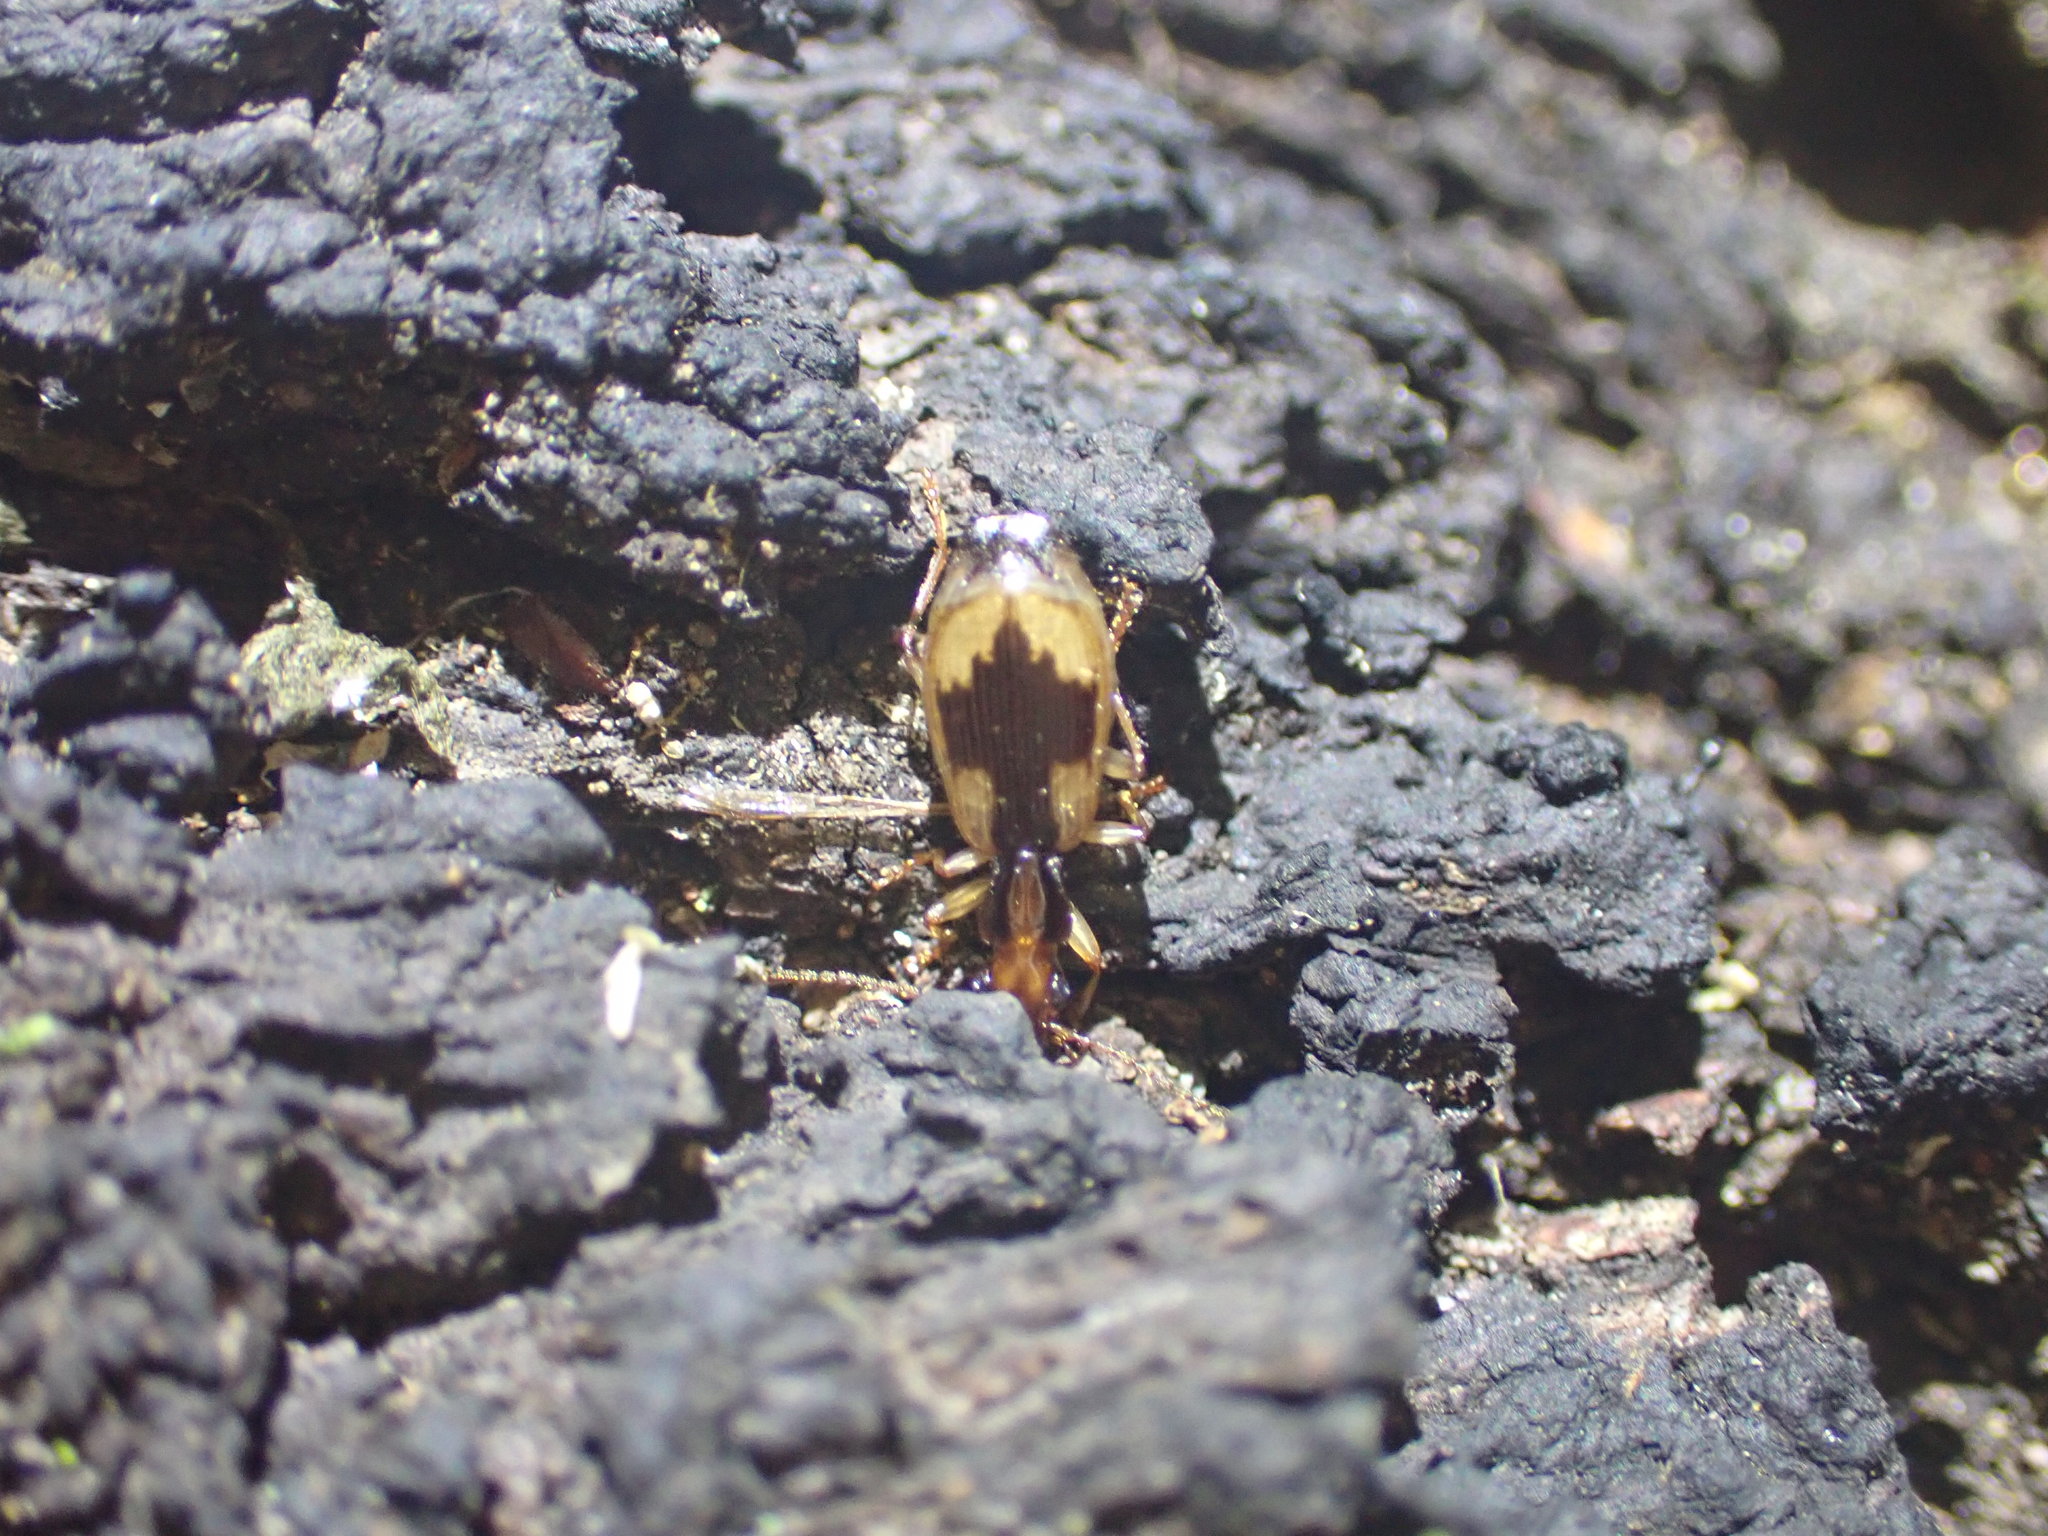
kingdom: Animalia
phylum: Arthropoda
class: Insecta
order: Coleoptera
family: Carabidae
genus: Demetrida
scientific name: Demetrida nasuta
